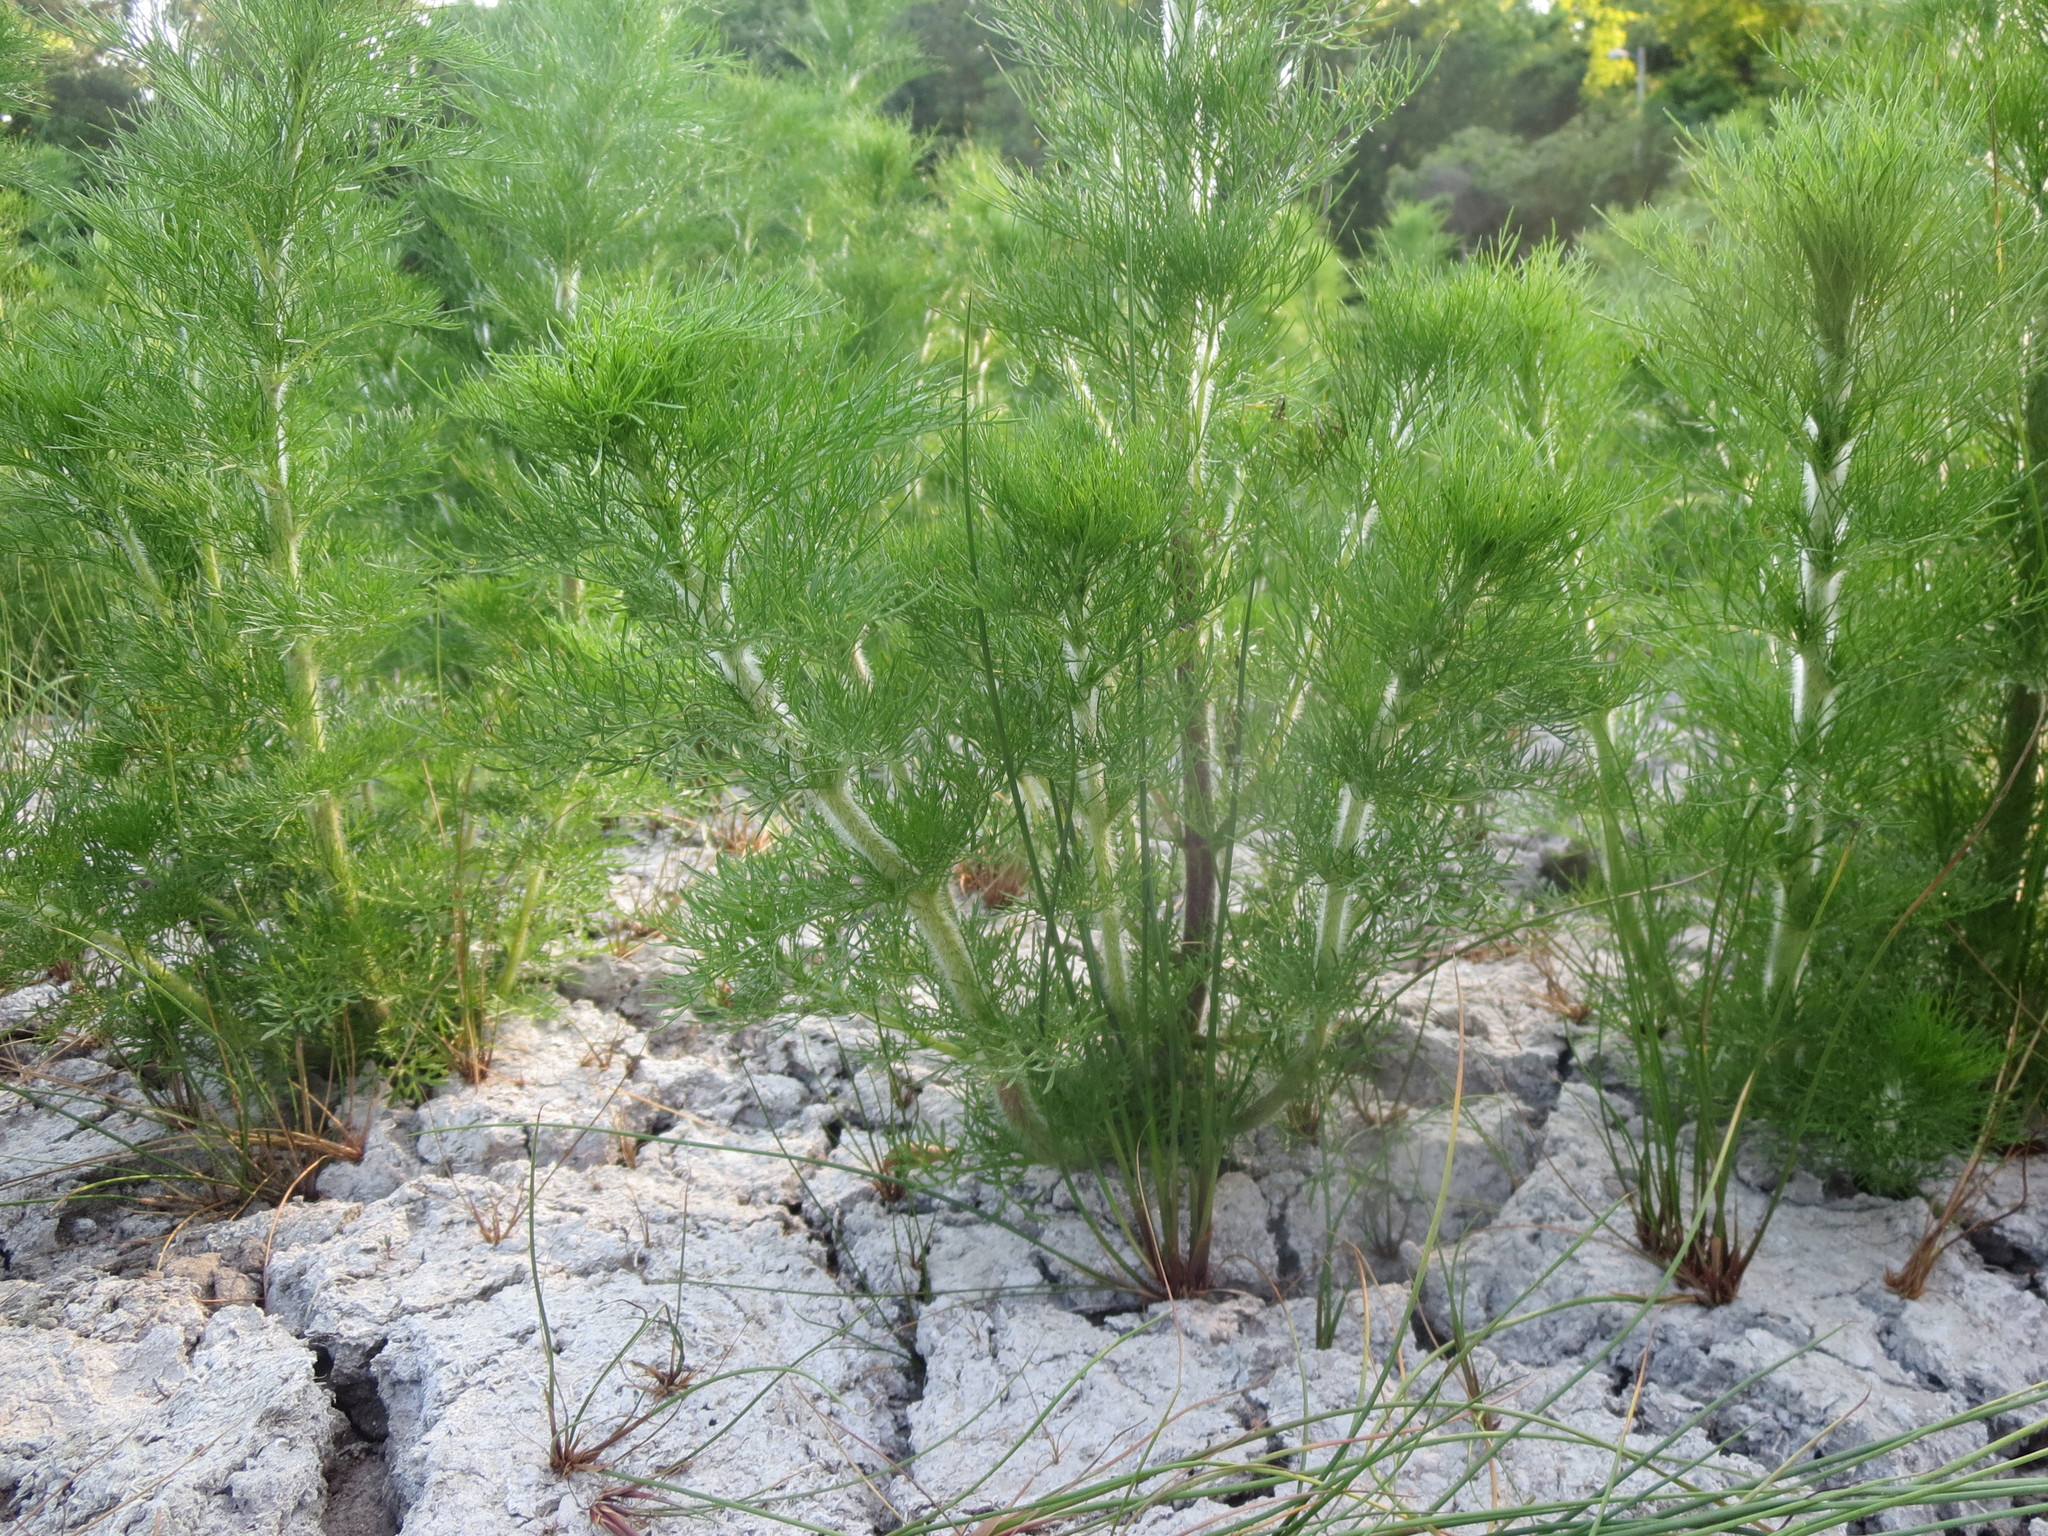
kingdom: Plantae
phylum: Tracheophyta
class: Magnoliopsida
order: Asterales
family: Asteraceae
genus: Eupatorium
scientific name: Eupatorium capillifolium
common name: Dog-fennel
